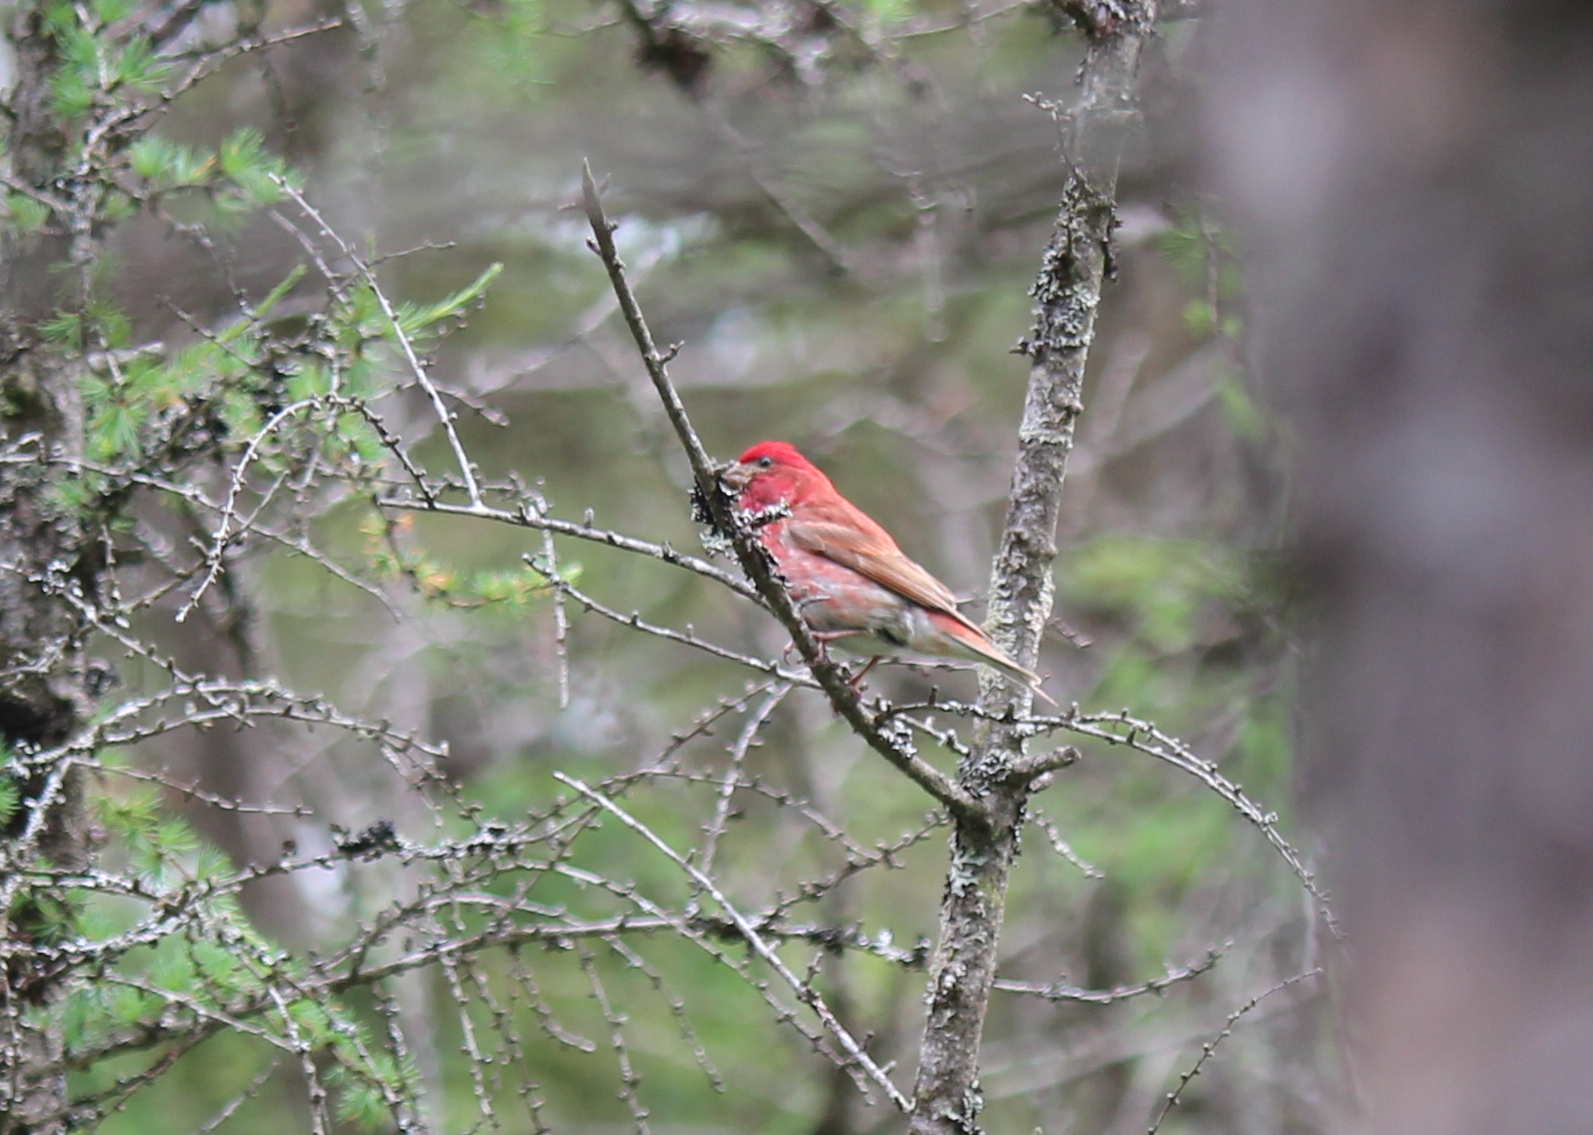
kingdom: Animalia
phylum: Chordata
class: Aves
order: Passeriformes
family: Fringillidae
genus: Haemorhous
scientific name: Haemorhous purpureus
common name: Purple finch
